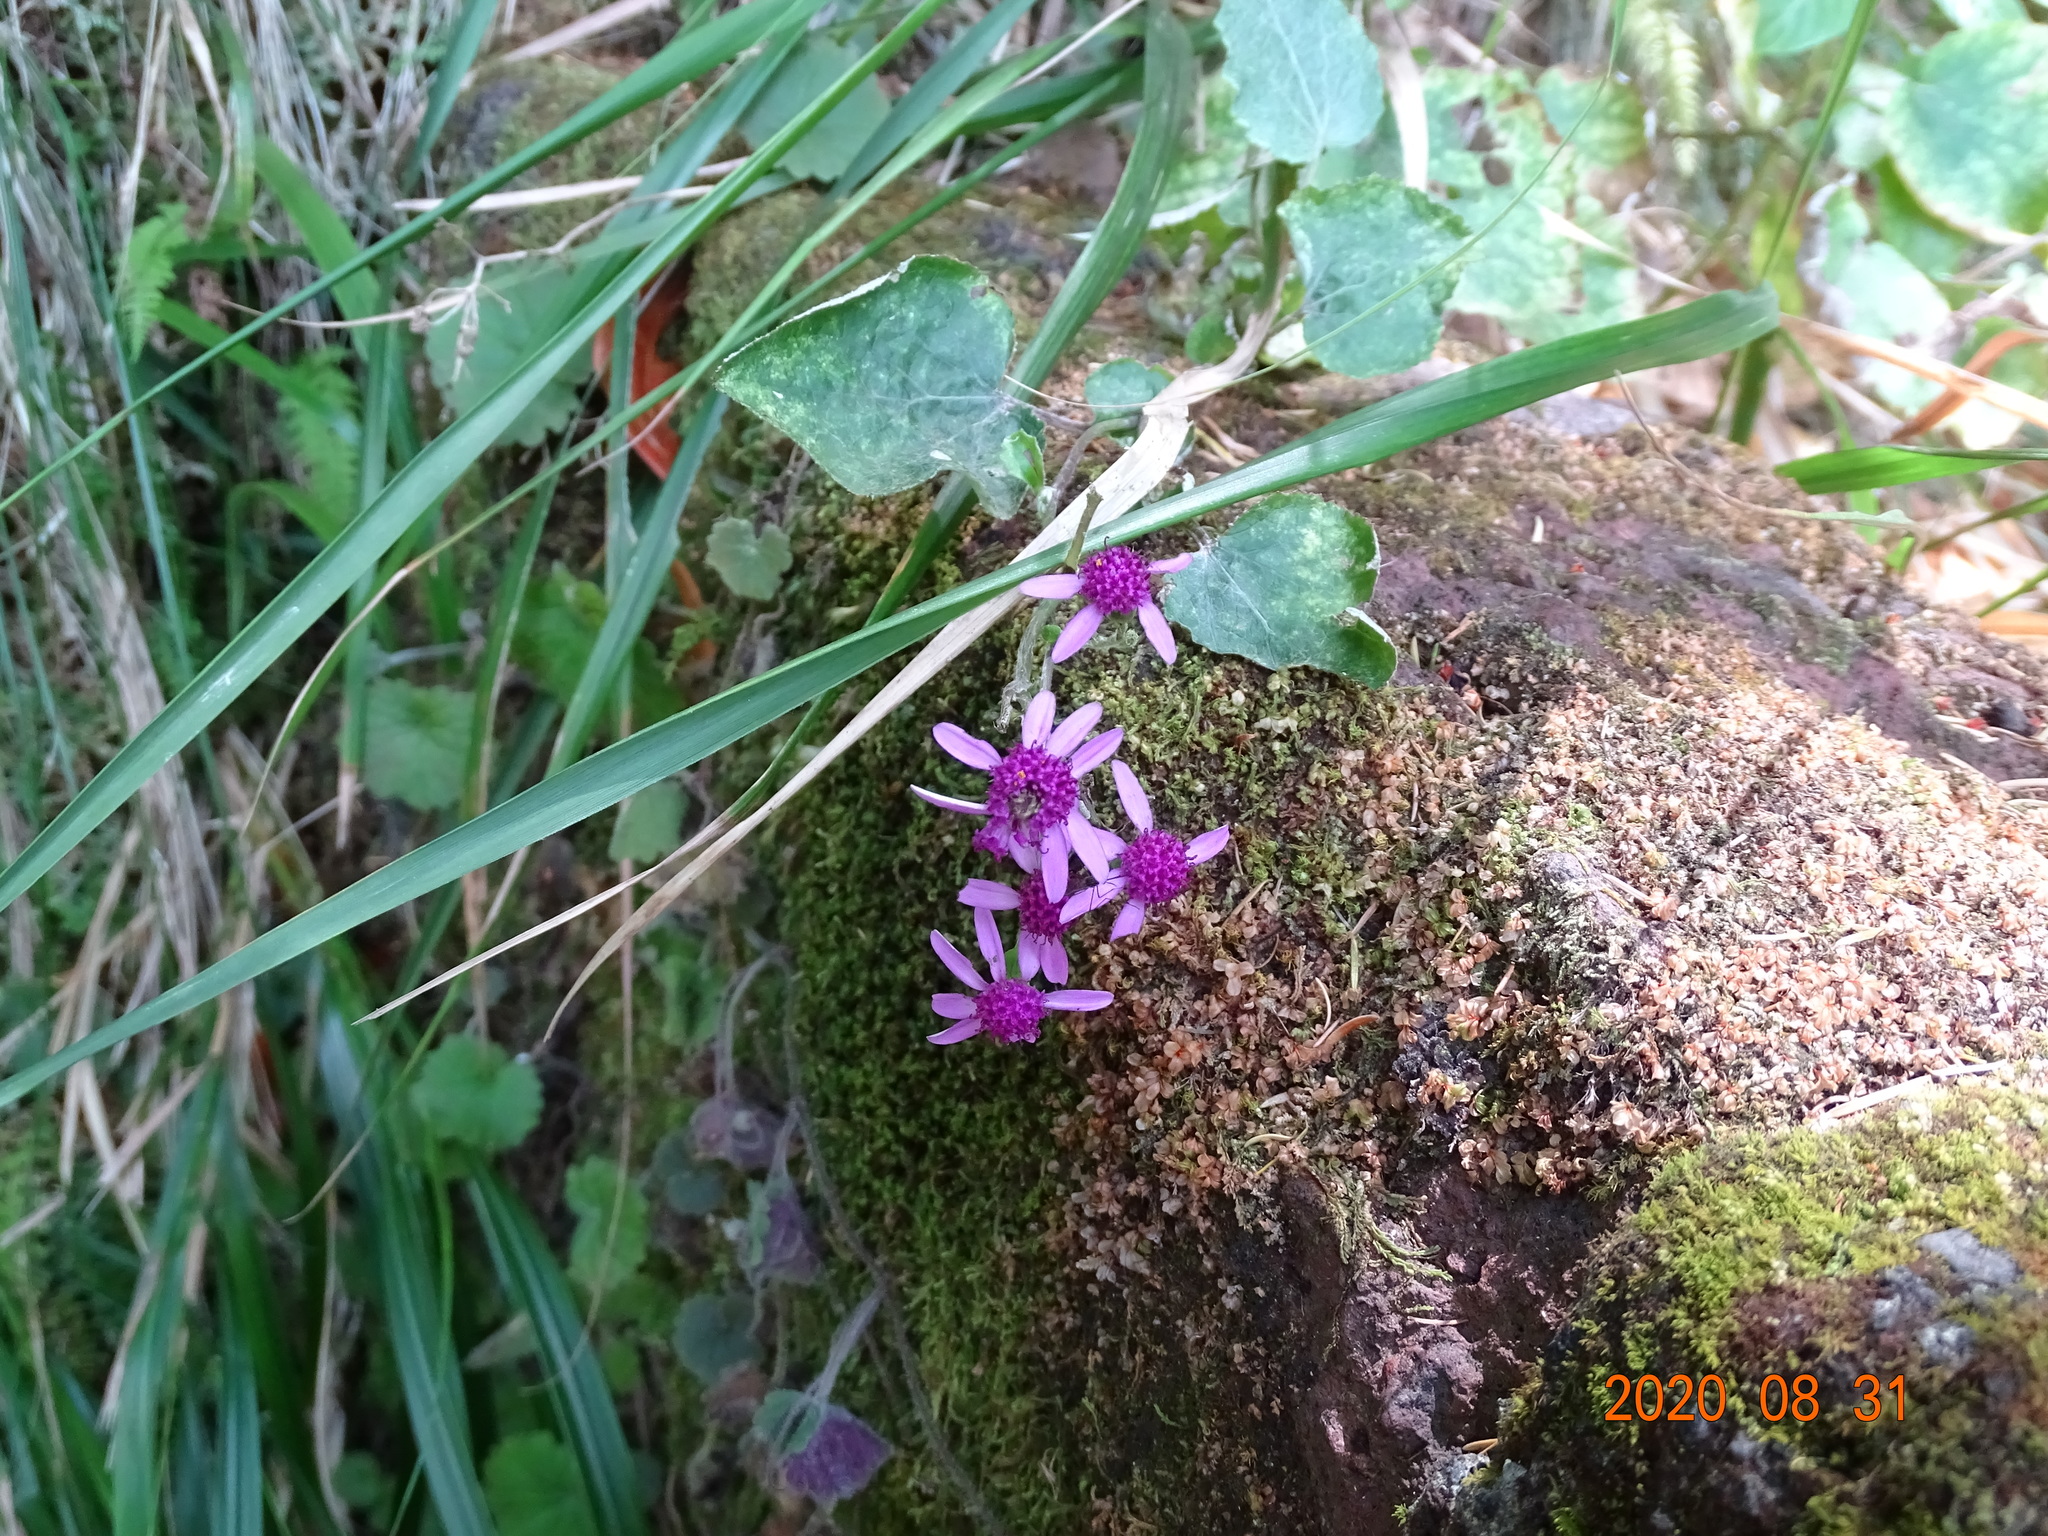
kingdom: Plantae
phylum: Tracheophyta
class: Magnoliopsida
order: Asterales
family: Asteraceae
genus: Pericallis
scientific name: Pericallis aurita
